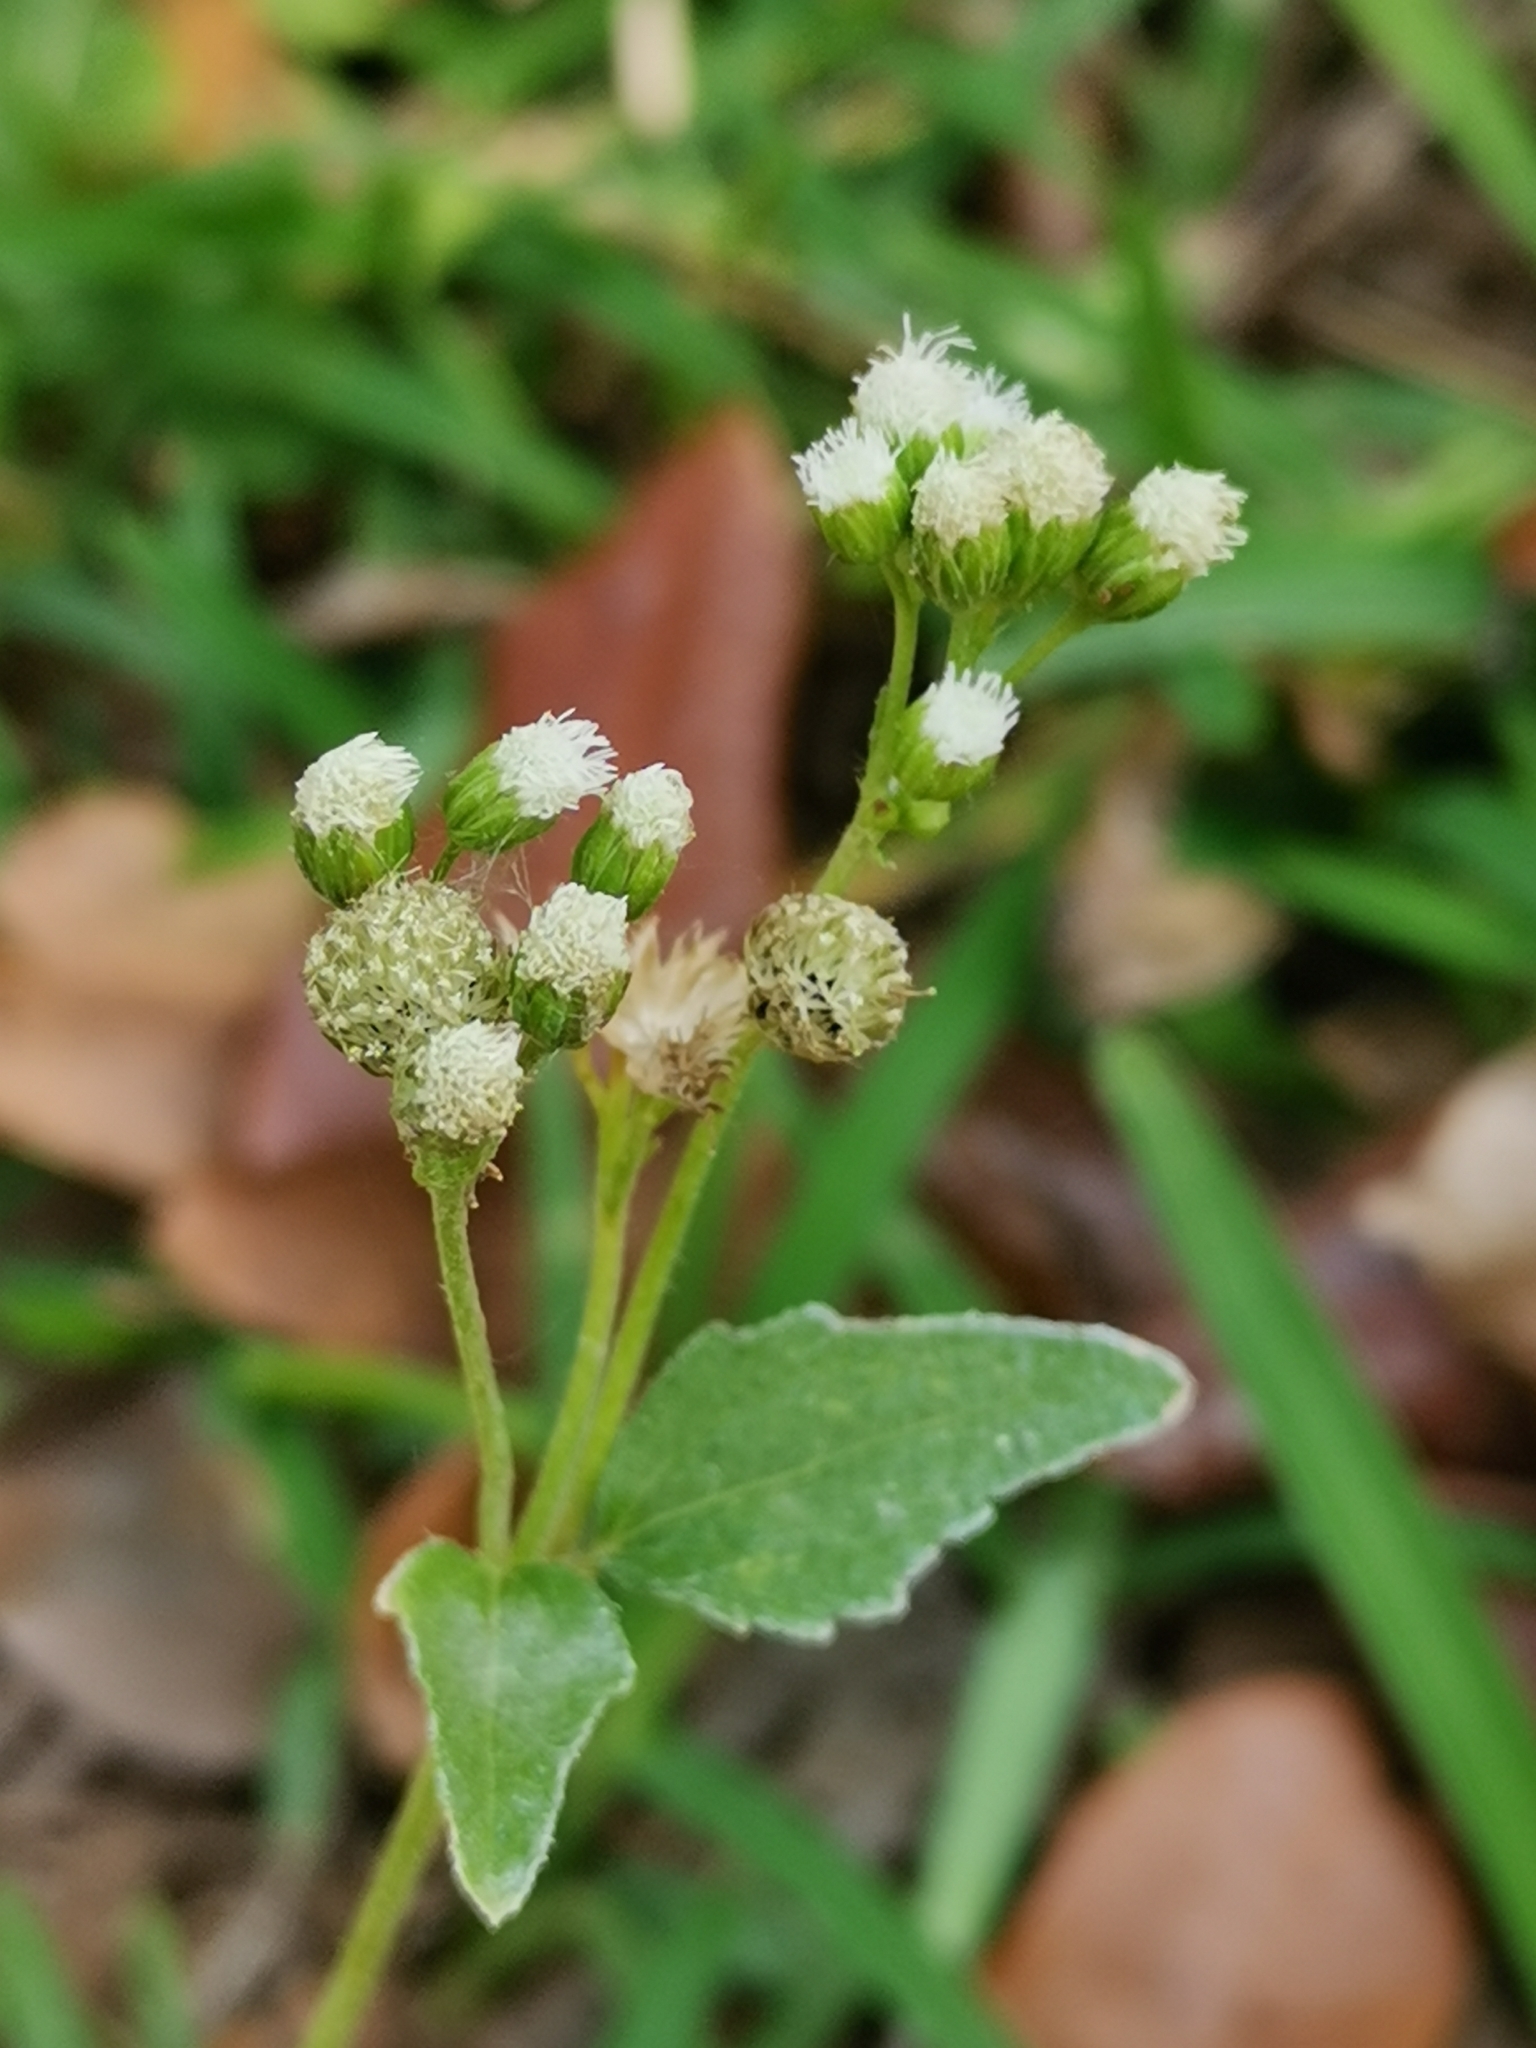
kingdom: Plantae
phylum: Tracheophyta
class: Magnoliopsida
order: Asterales
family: Asteraceae
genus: Ageratum
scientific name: Ageratum conyzoides
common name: Tropical whiteweed
